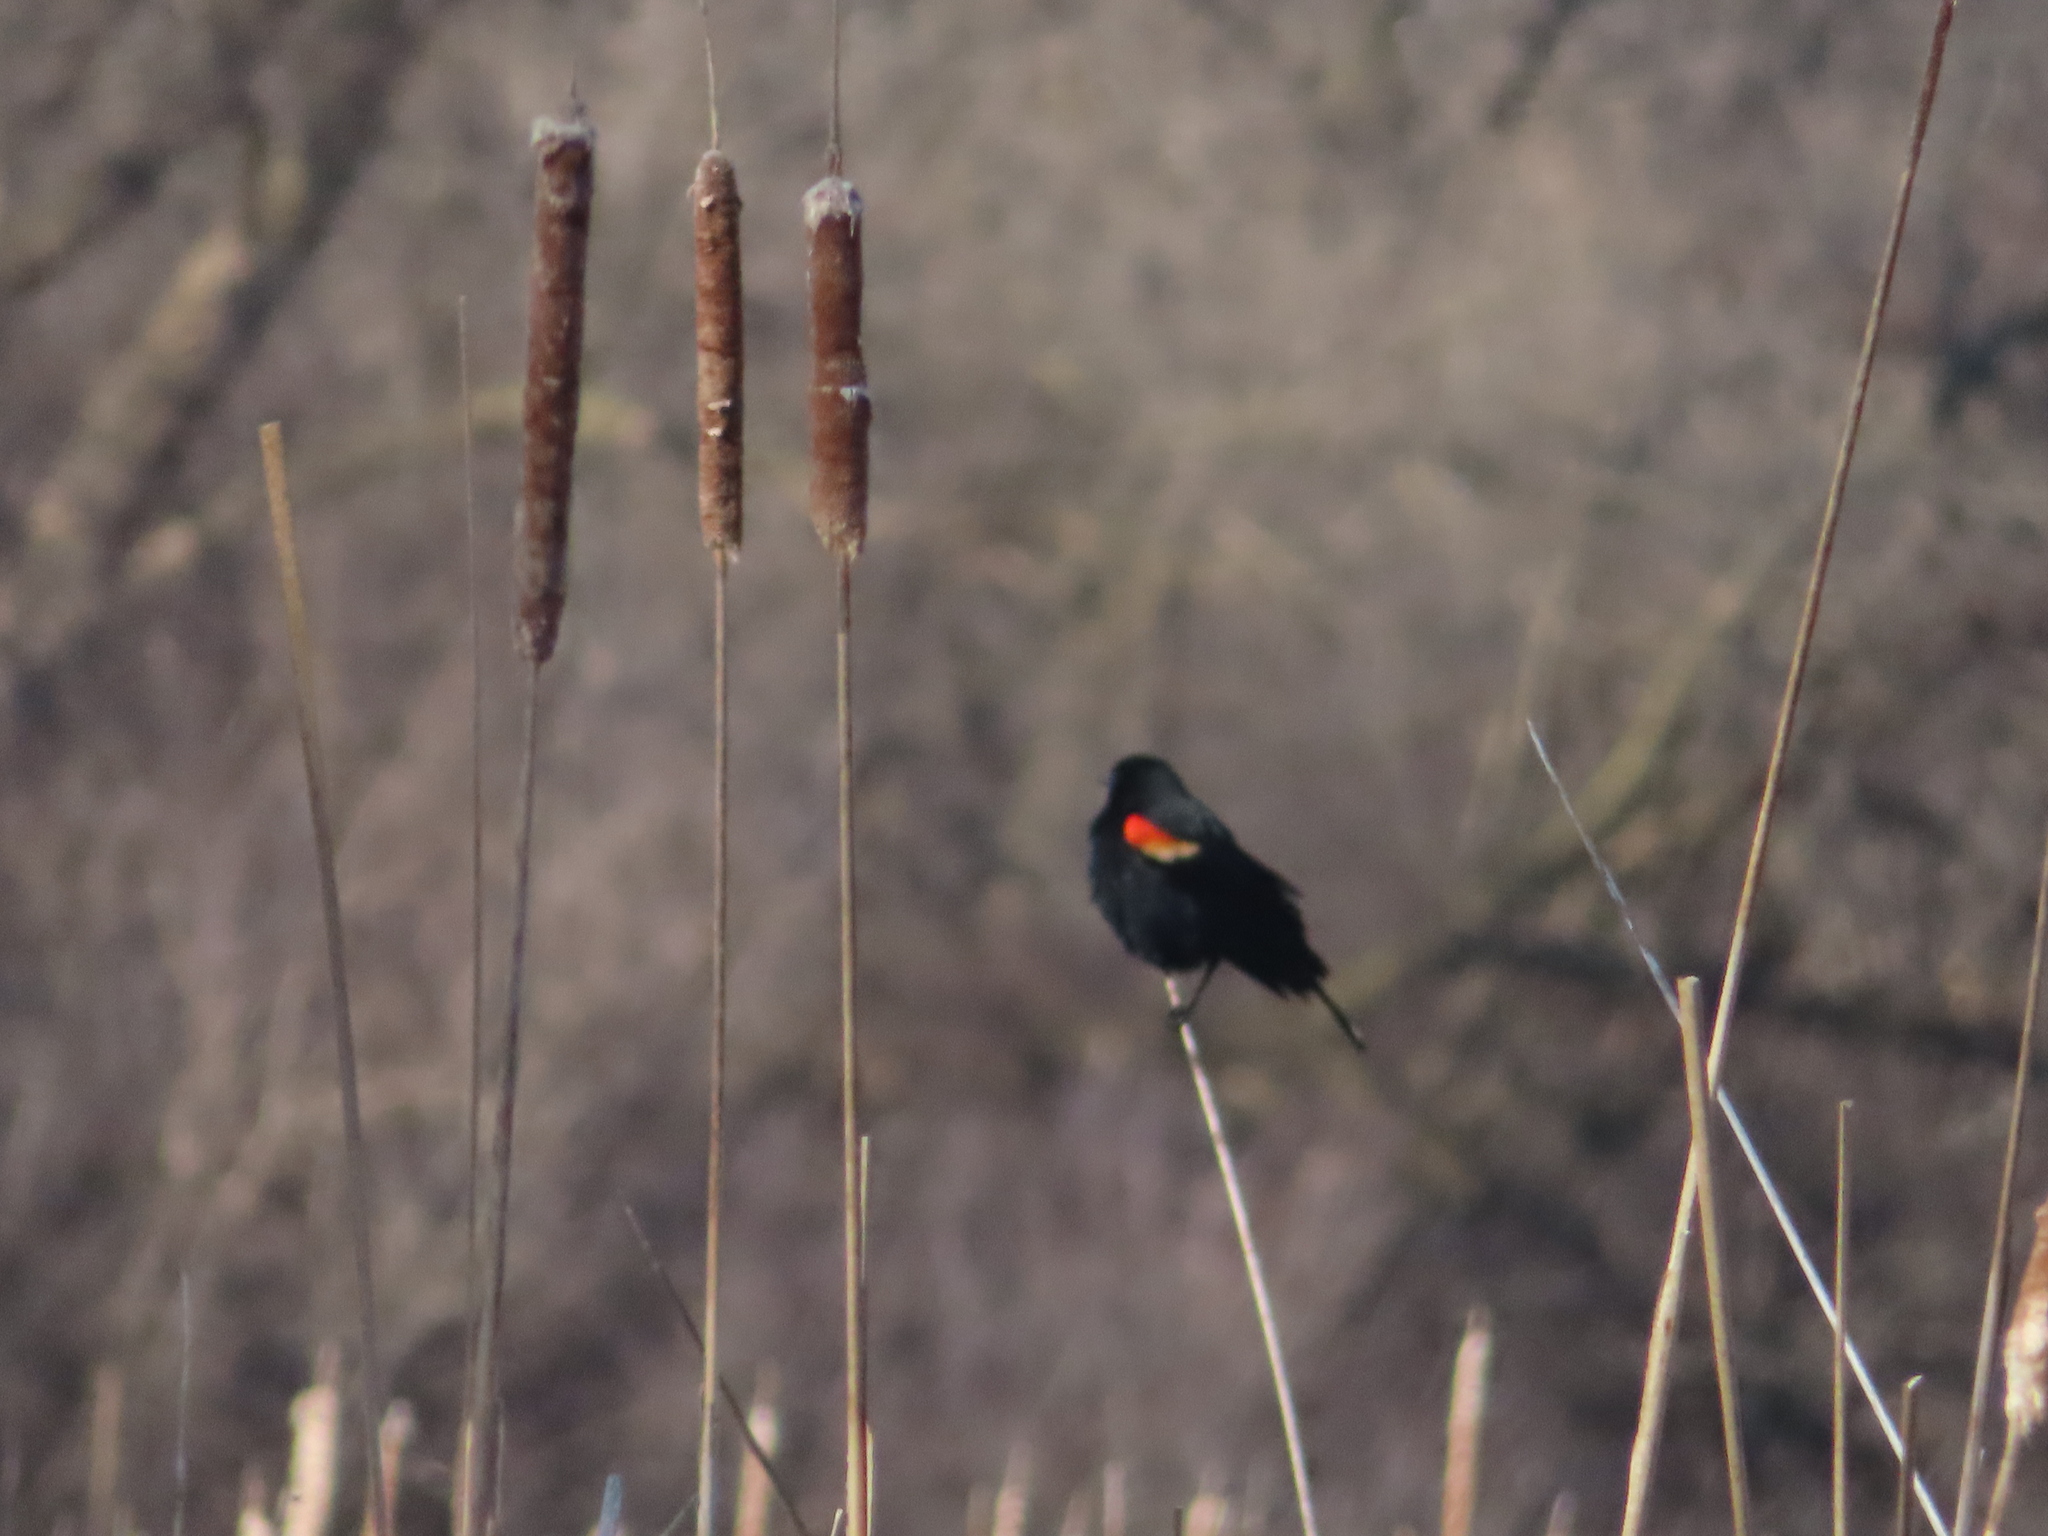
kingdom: Animalia
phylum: Chordata
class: Aves
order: Passeriformes
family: Icteridae
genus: Agelaius
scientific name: Agelaius phoeniceus
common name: Red-winged blackbird
